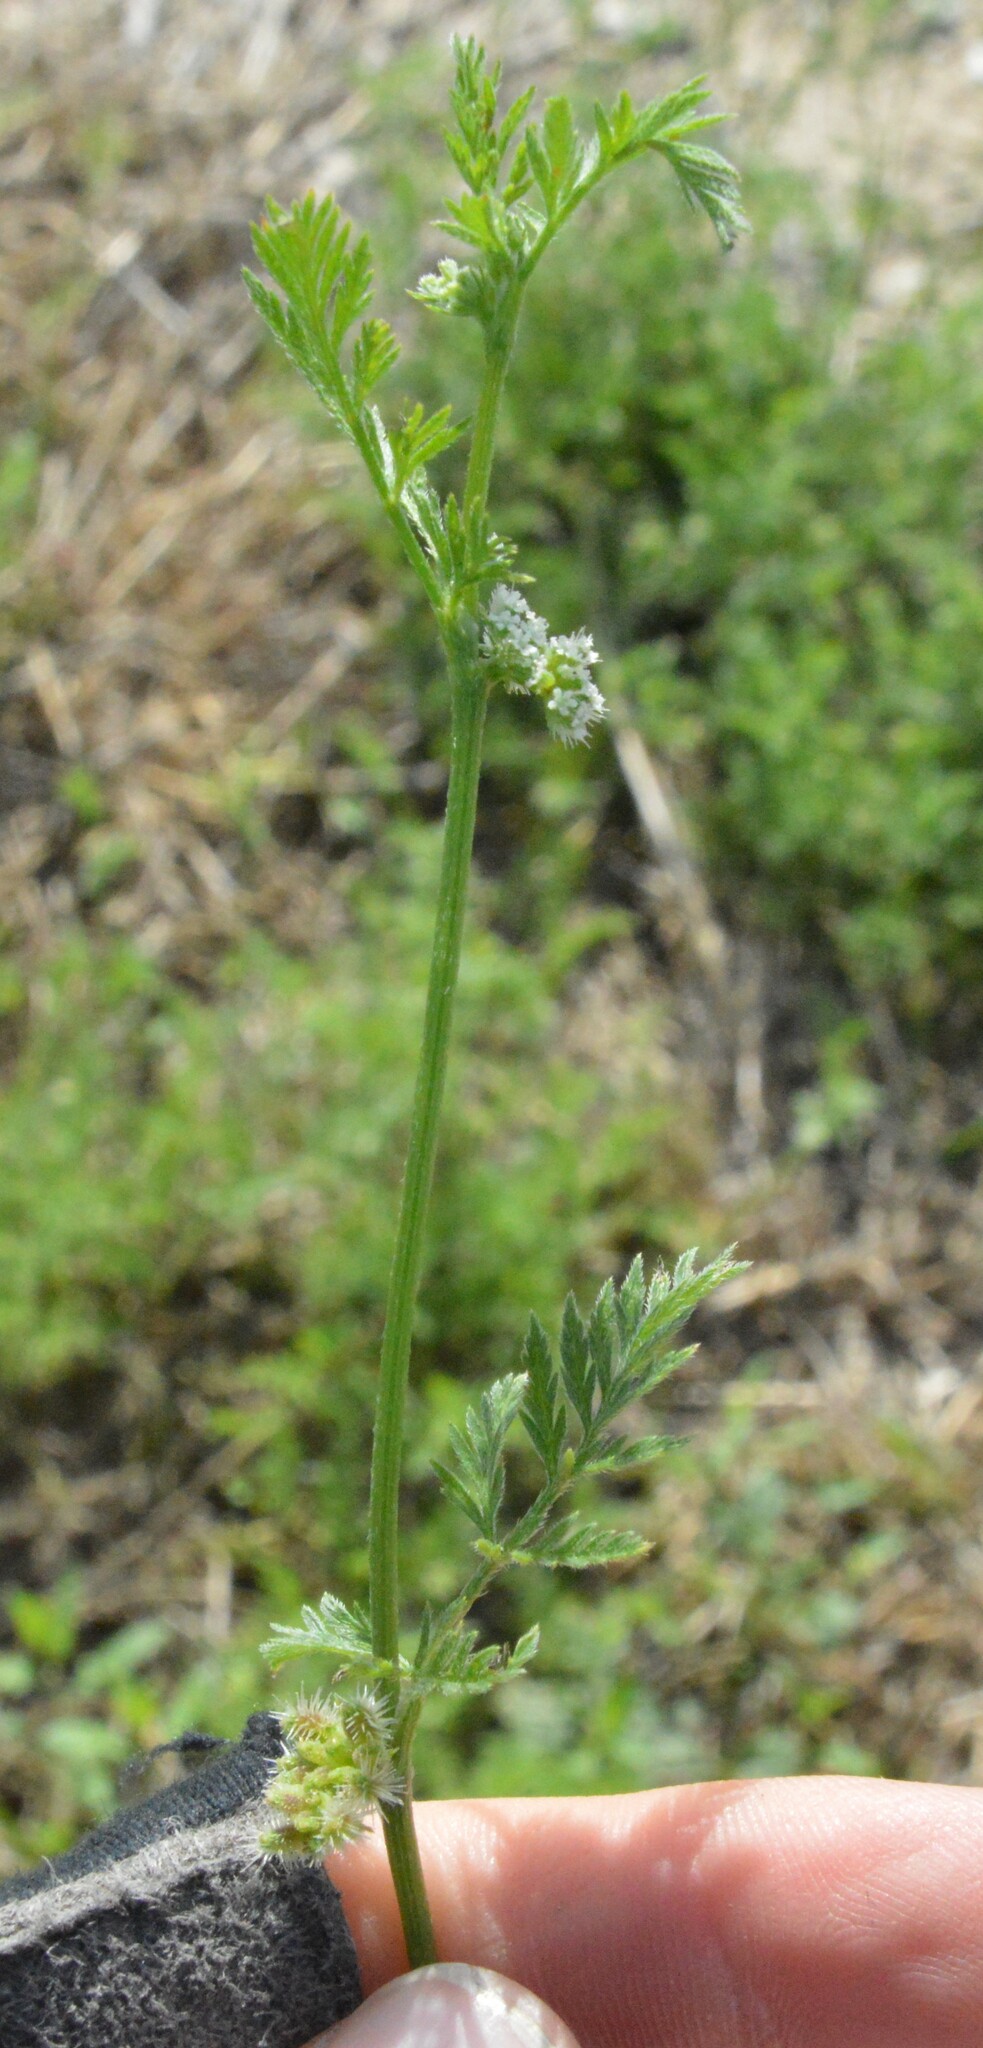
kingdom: Plantae
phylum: Tracheophyta
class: Magnoliopsida
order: Apiales
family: Apiaceae
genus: Torilis
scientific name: Torilis nodosa
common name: Knotted hedge-parsley
